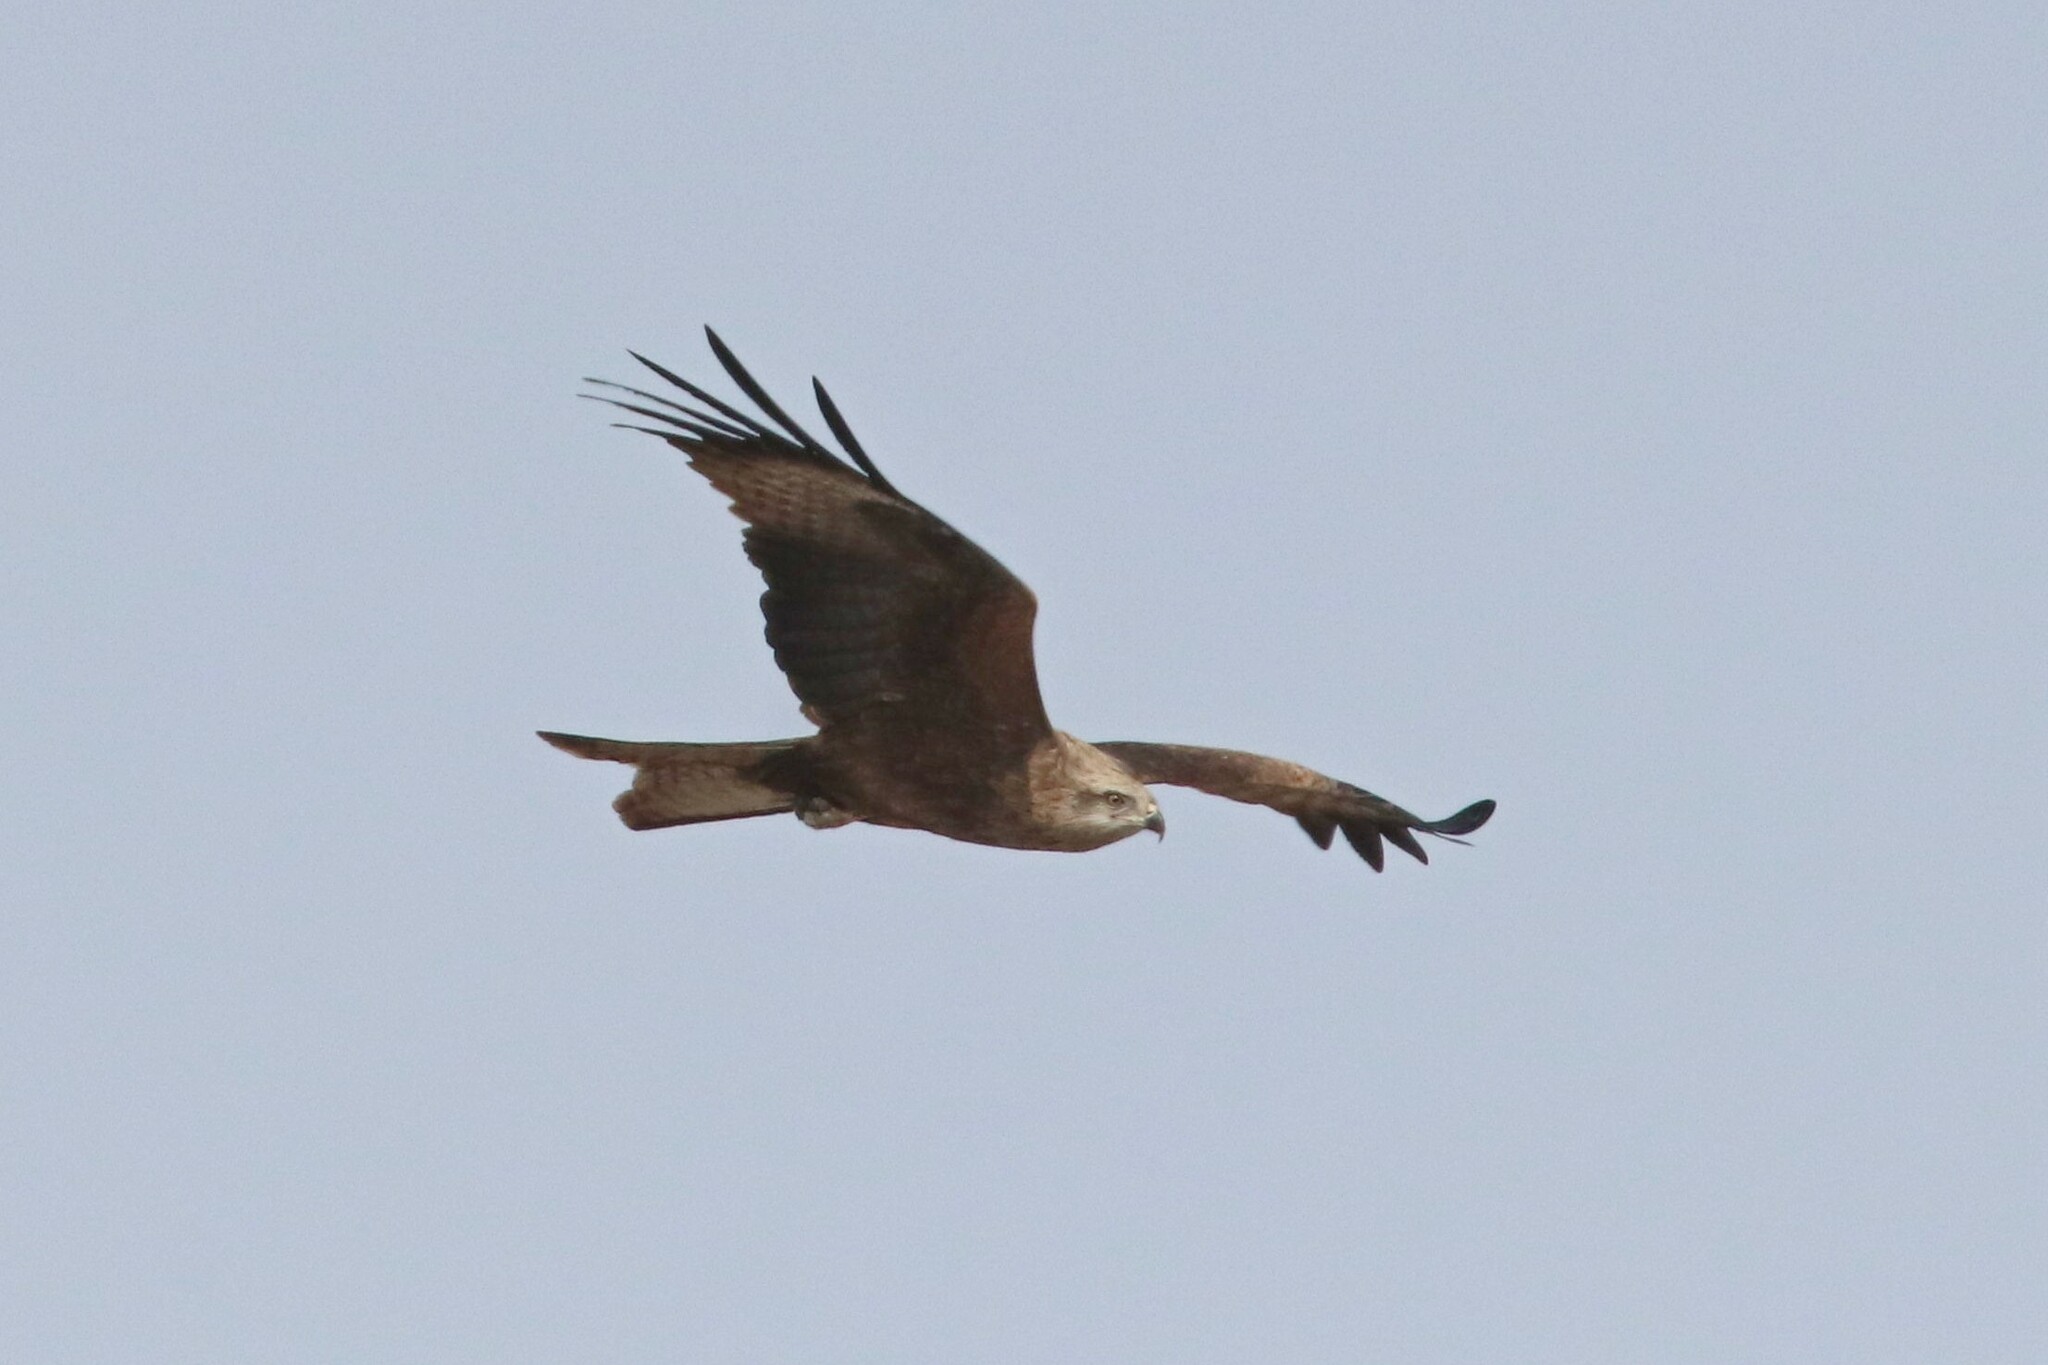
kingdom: Animalia
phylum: Chordata
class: Aves
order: Accipitriformes
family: Accipitridae
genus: Milvus
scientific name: Milvus migrans
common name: Black kite
